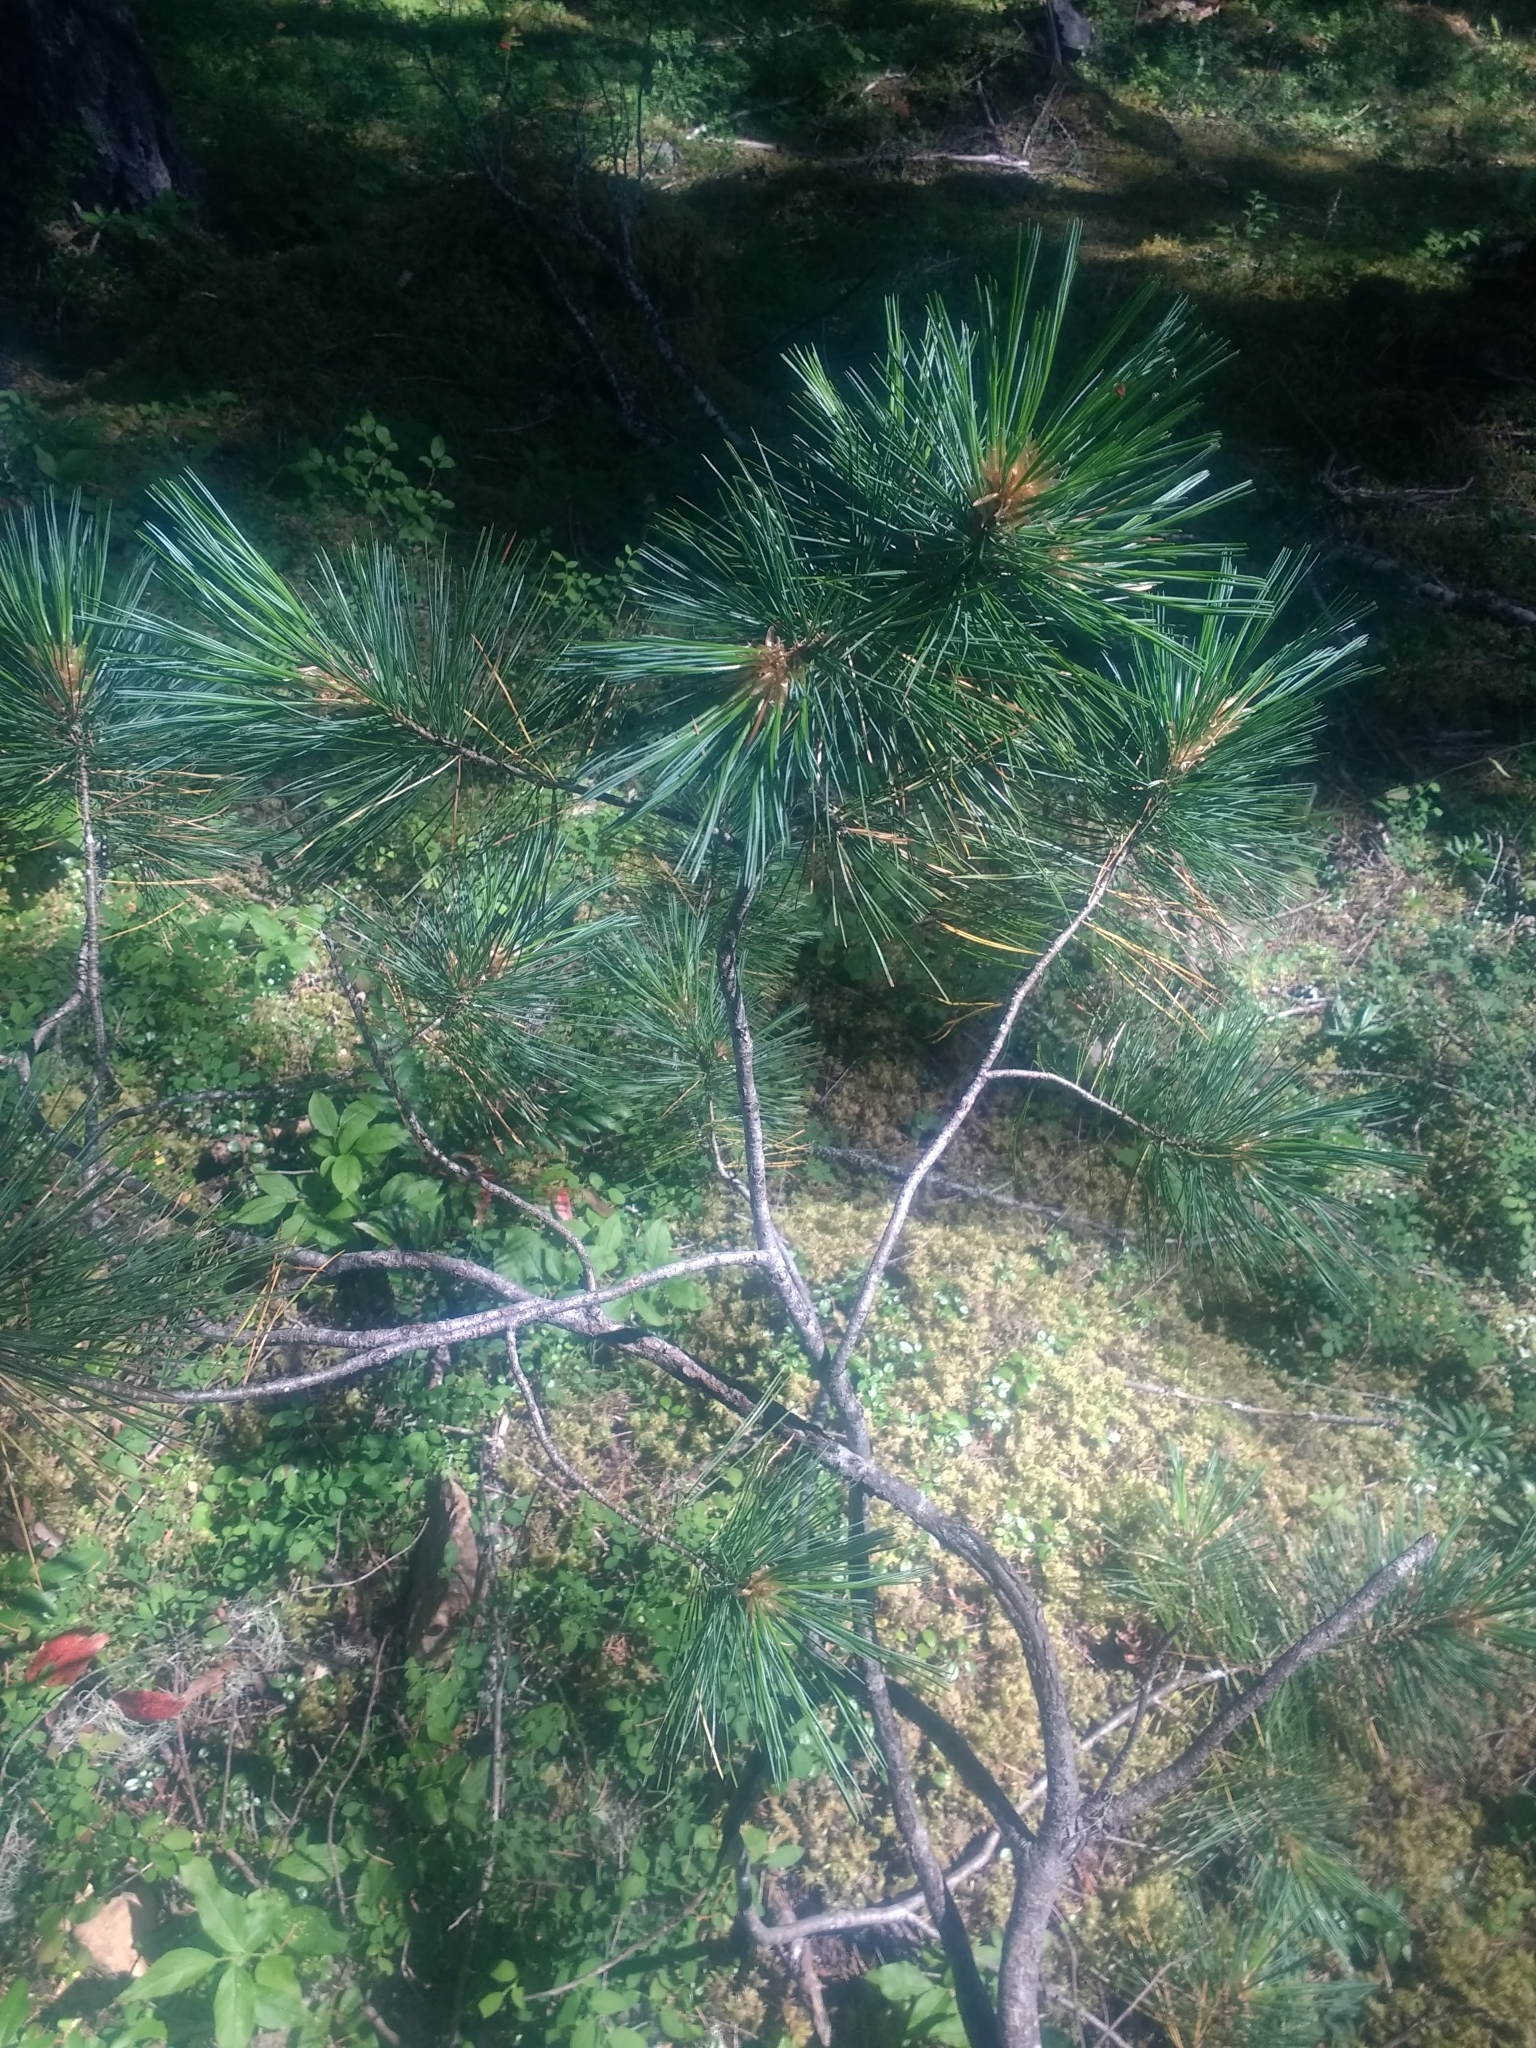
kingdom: Plantae
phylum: Tracheophyta
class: Pinopsida
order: Pinales
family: Pinaceae
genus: Pinus
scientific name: Pinus monticola
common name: Western white pine
